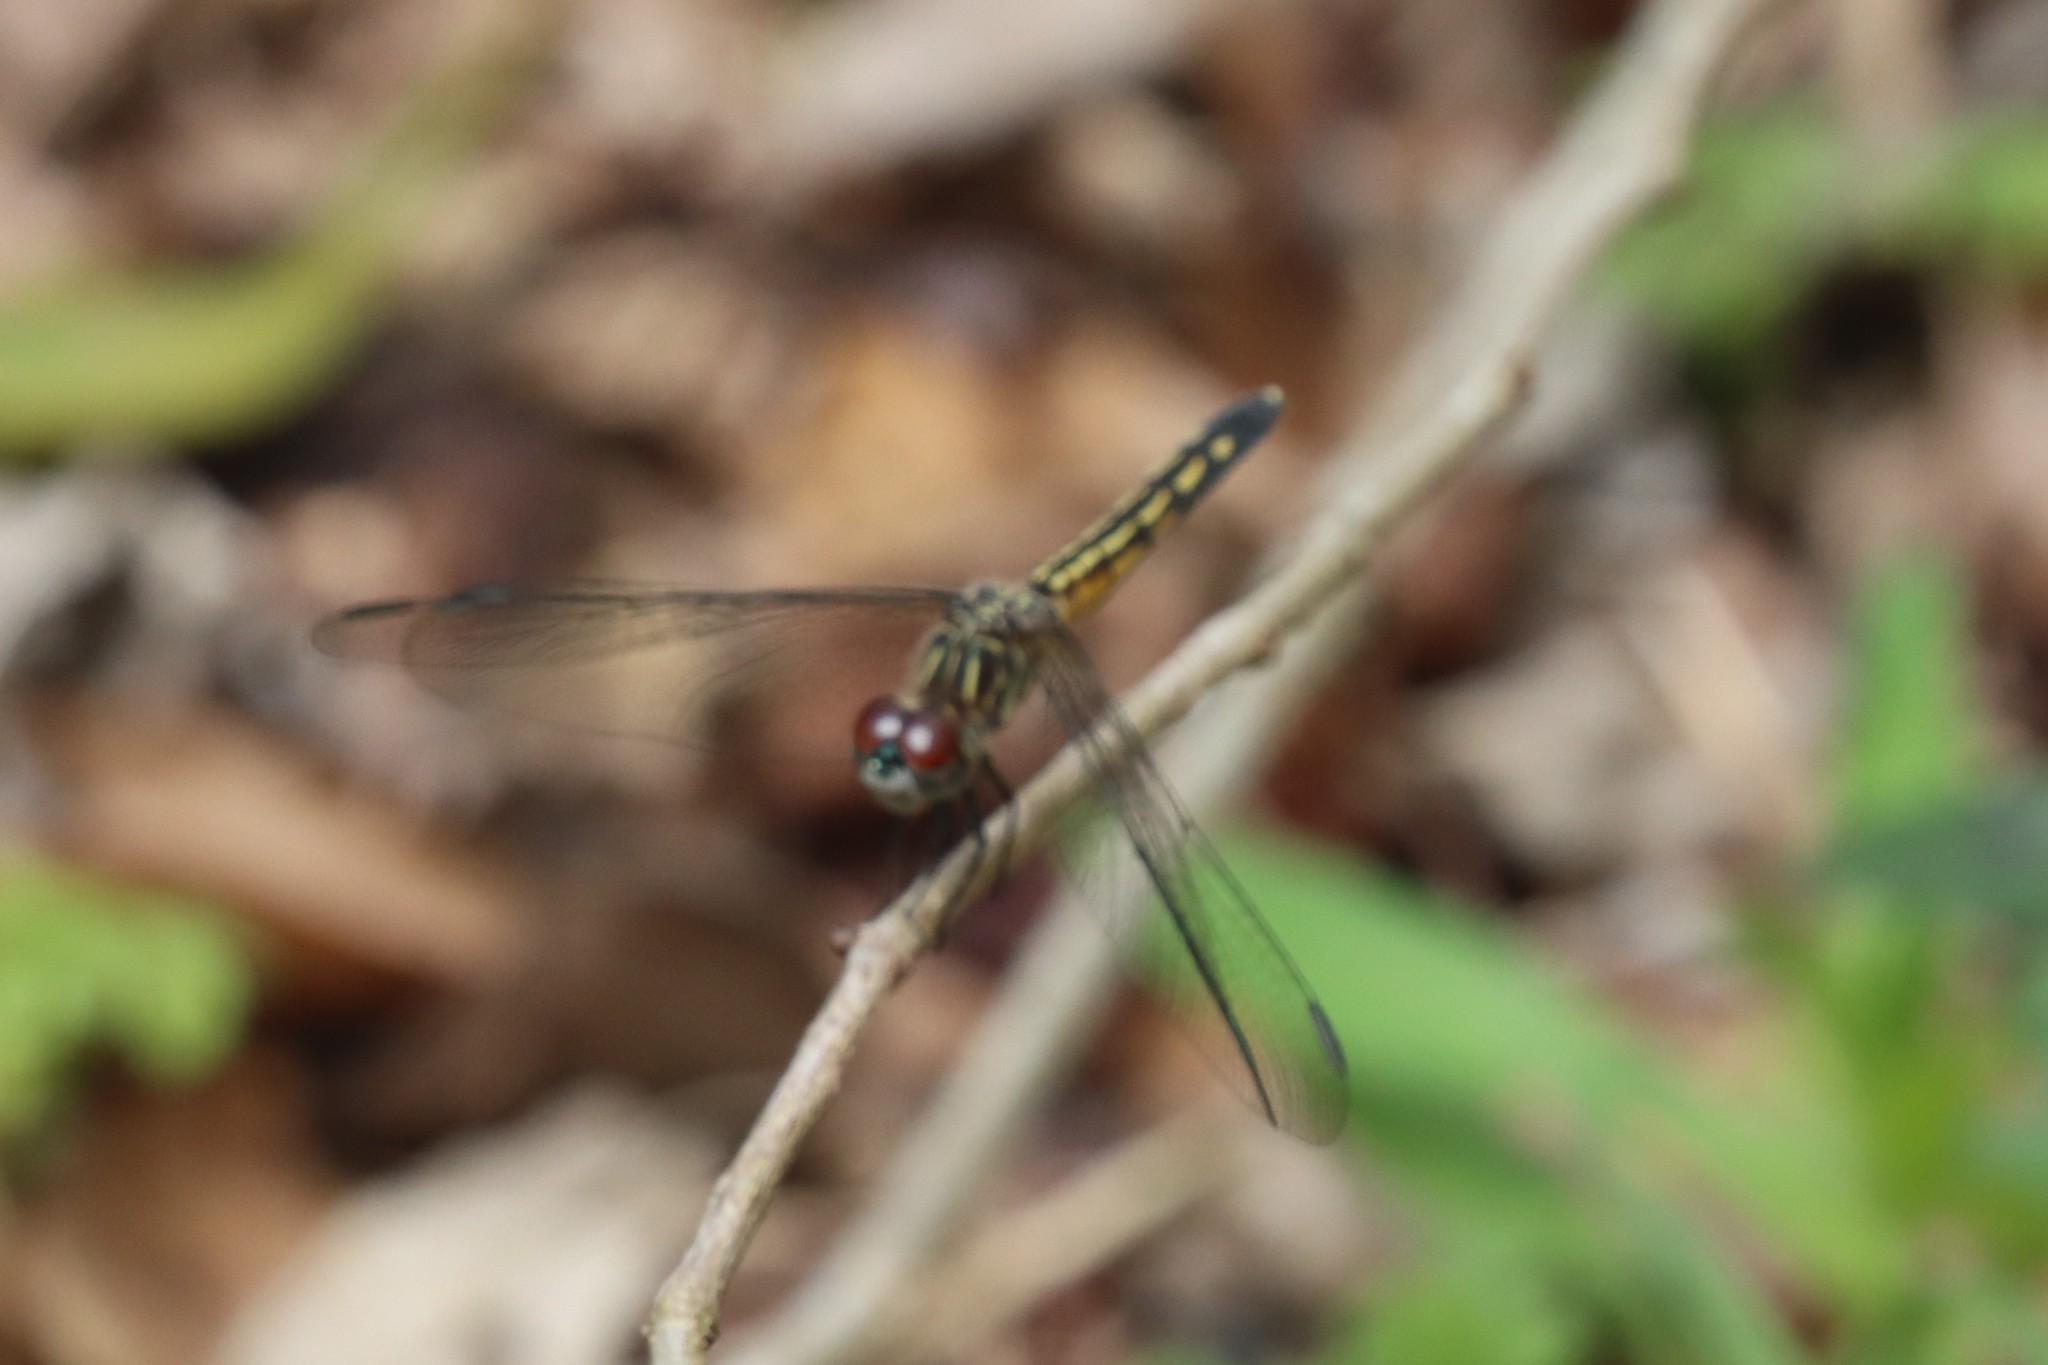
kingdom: Animalia
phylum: Arthropoda
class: Insecta
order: Odonata
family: Libellulidae
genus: Pachydiplax
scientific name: Pachydiplax longipennis
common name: Blue dasher
